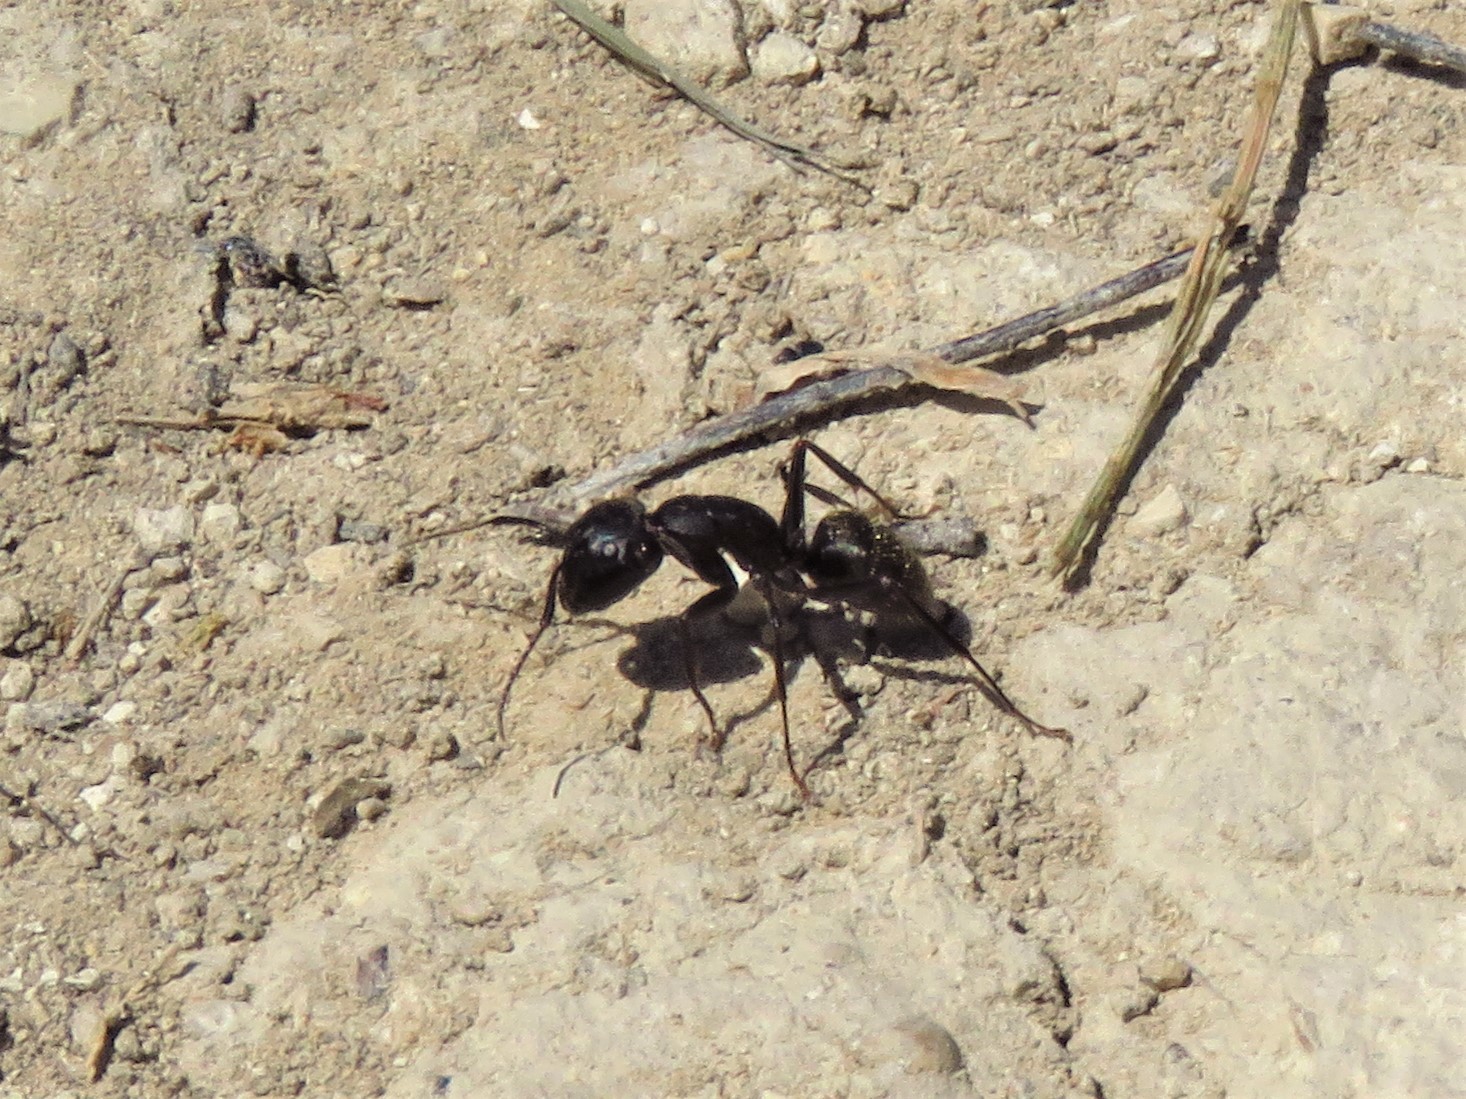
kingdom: Animalia
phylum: Arthropoda
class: Insecta
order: Hymenoptera
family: Formicidae
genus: Camponotus
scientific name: Camponotus pennsylvanicus
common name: Black carpenter ant
